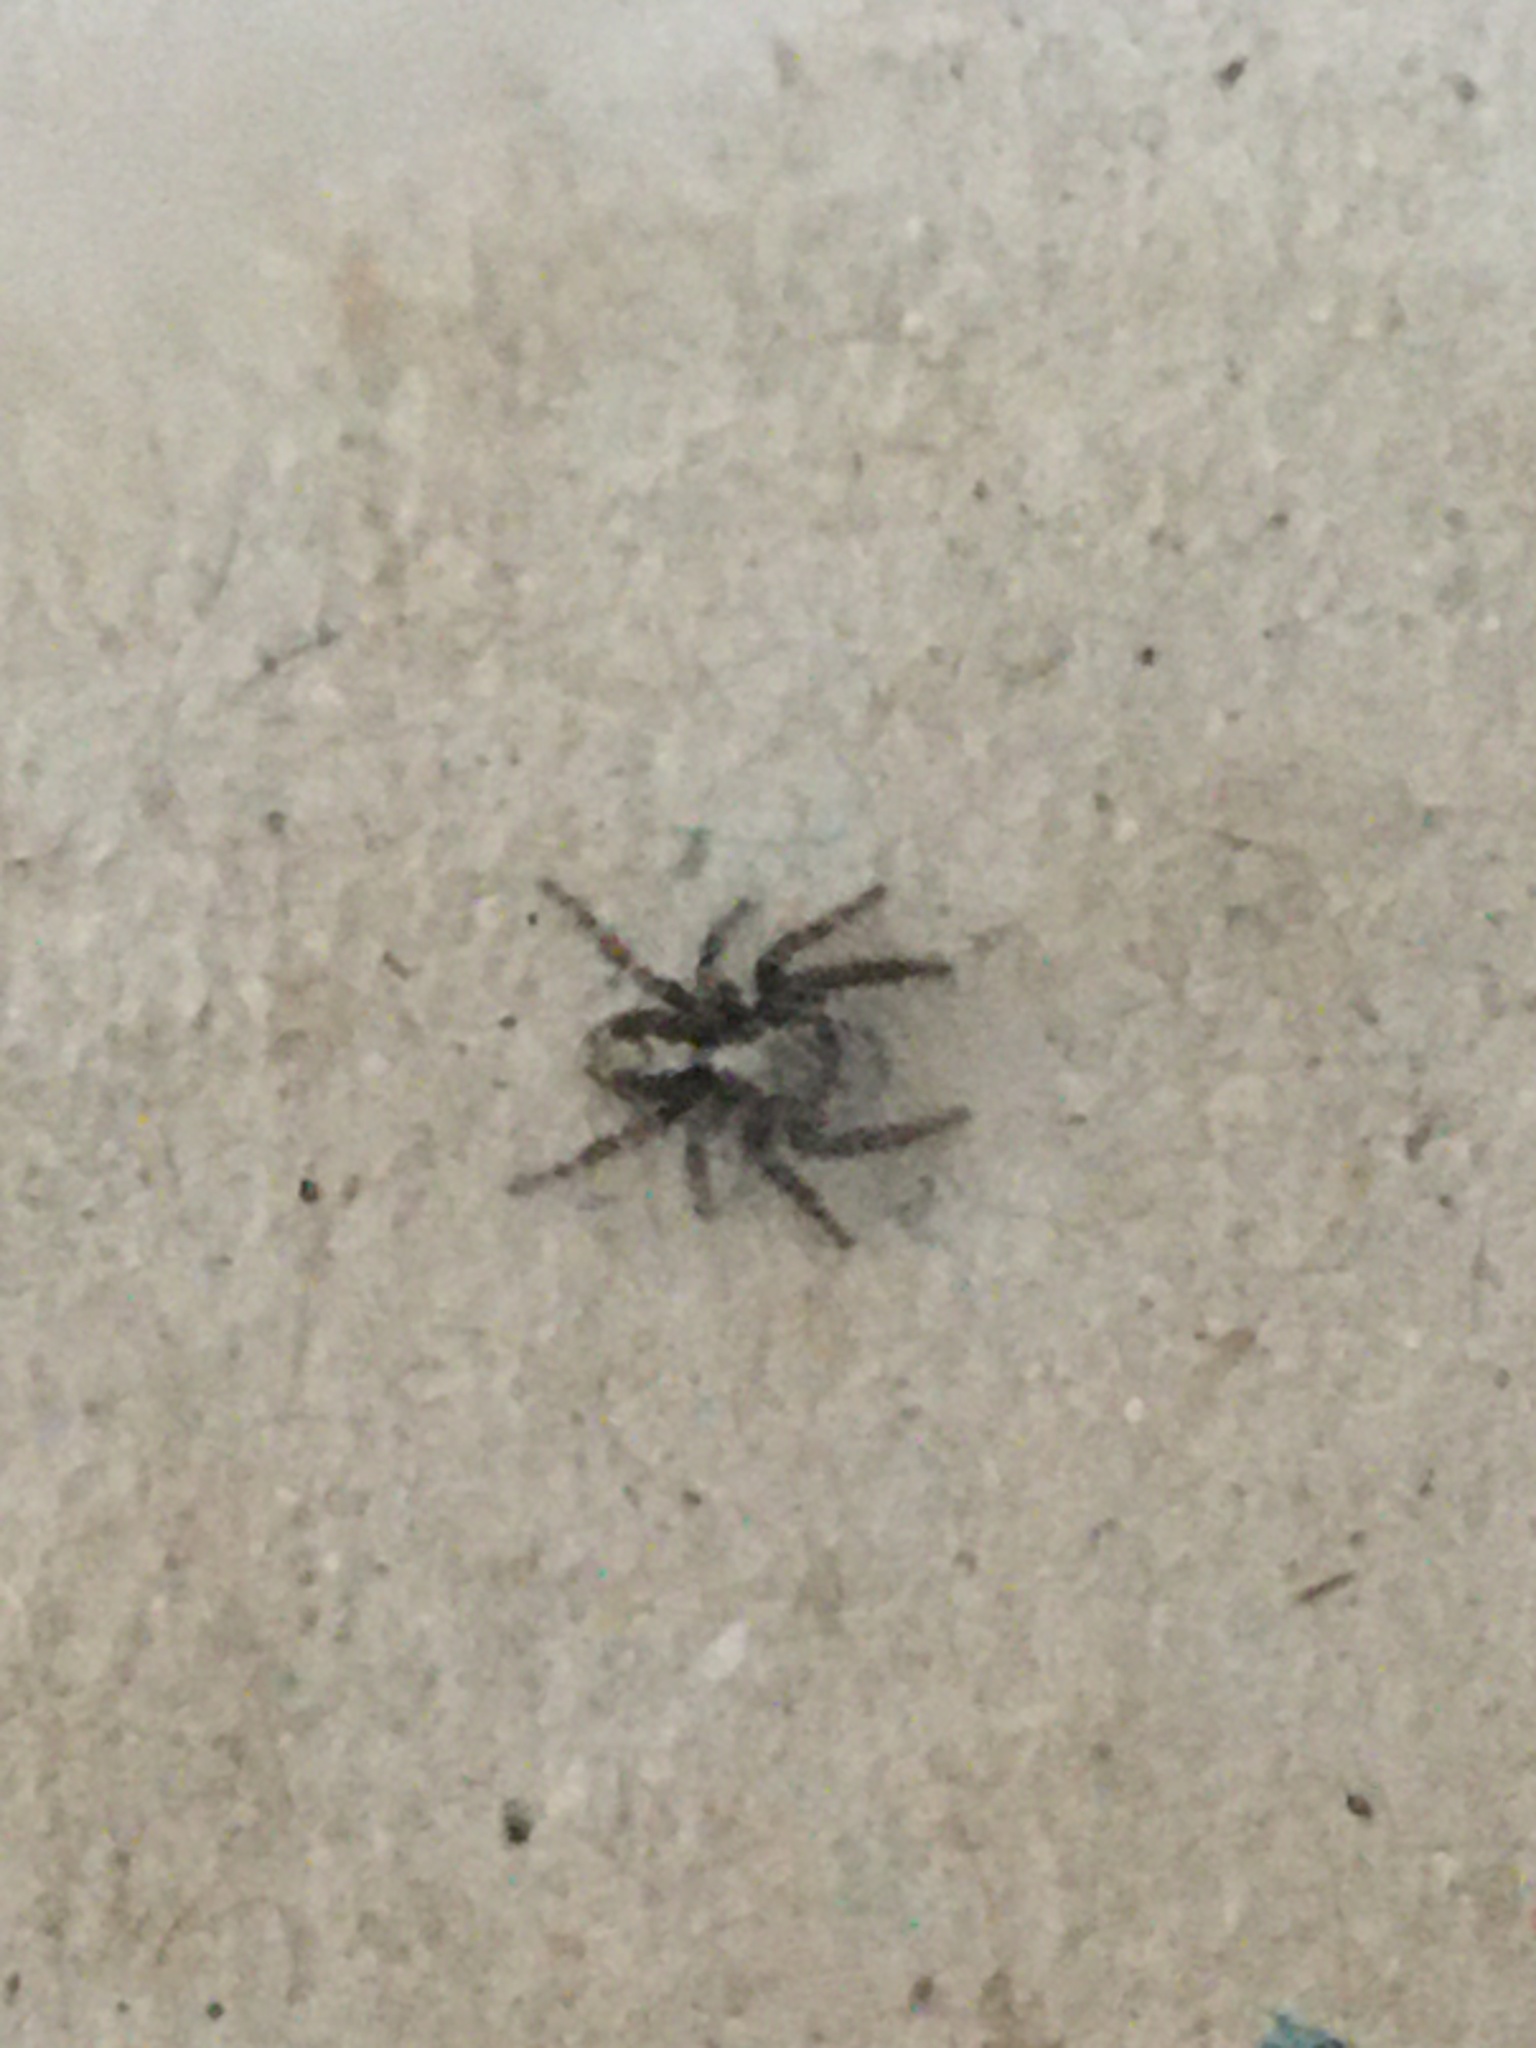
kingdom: Animalia
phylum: Arthropoda
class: Arachnida
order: Araneae
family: Salticidae
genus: Pseudeuophrys
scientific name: Pseudeuophrys lanigera
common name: Jumping spider
